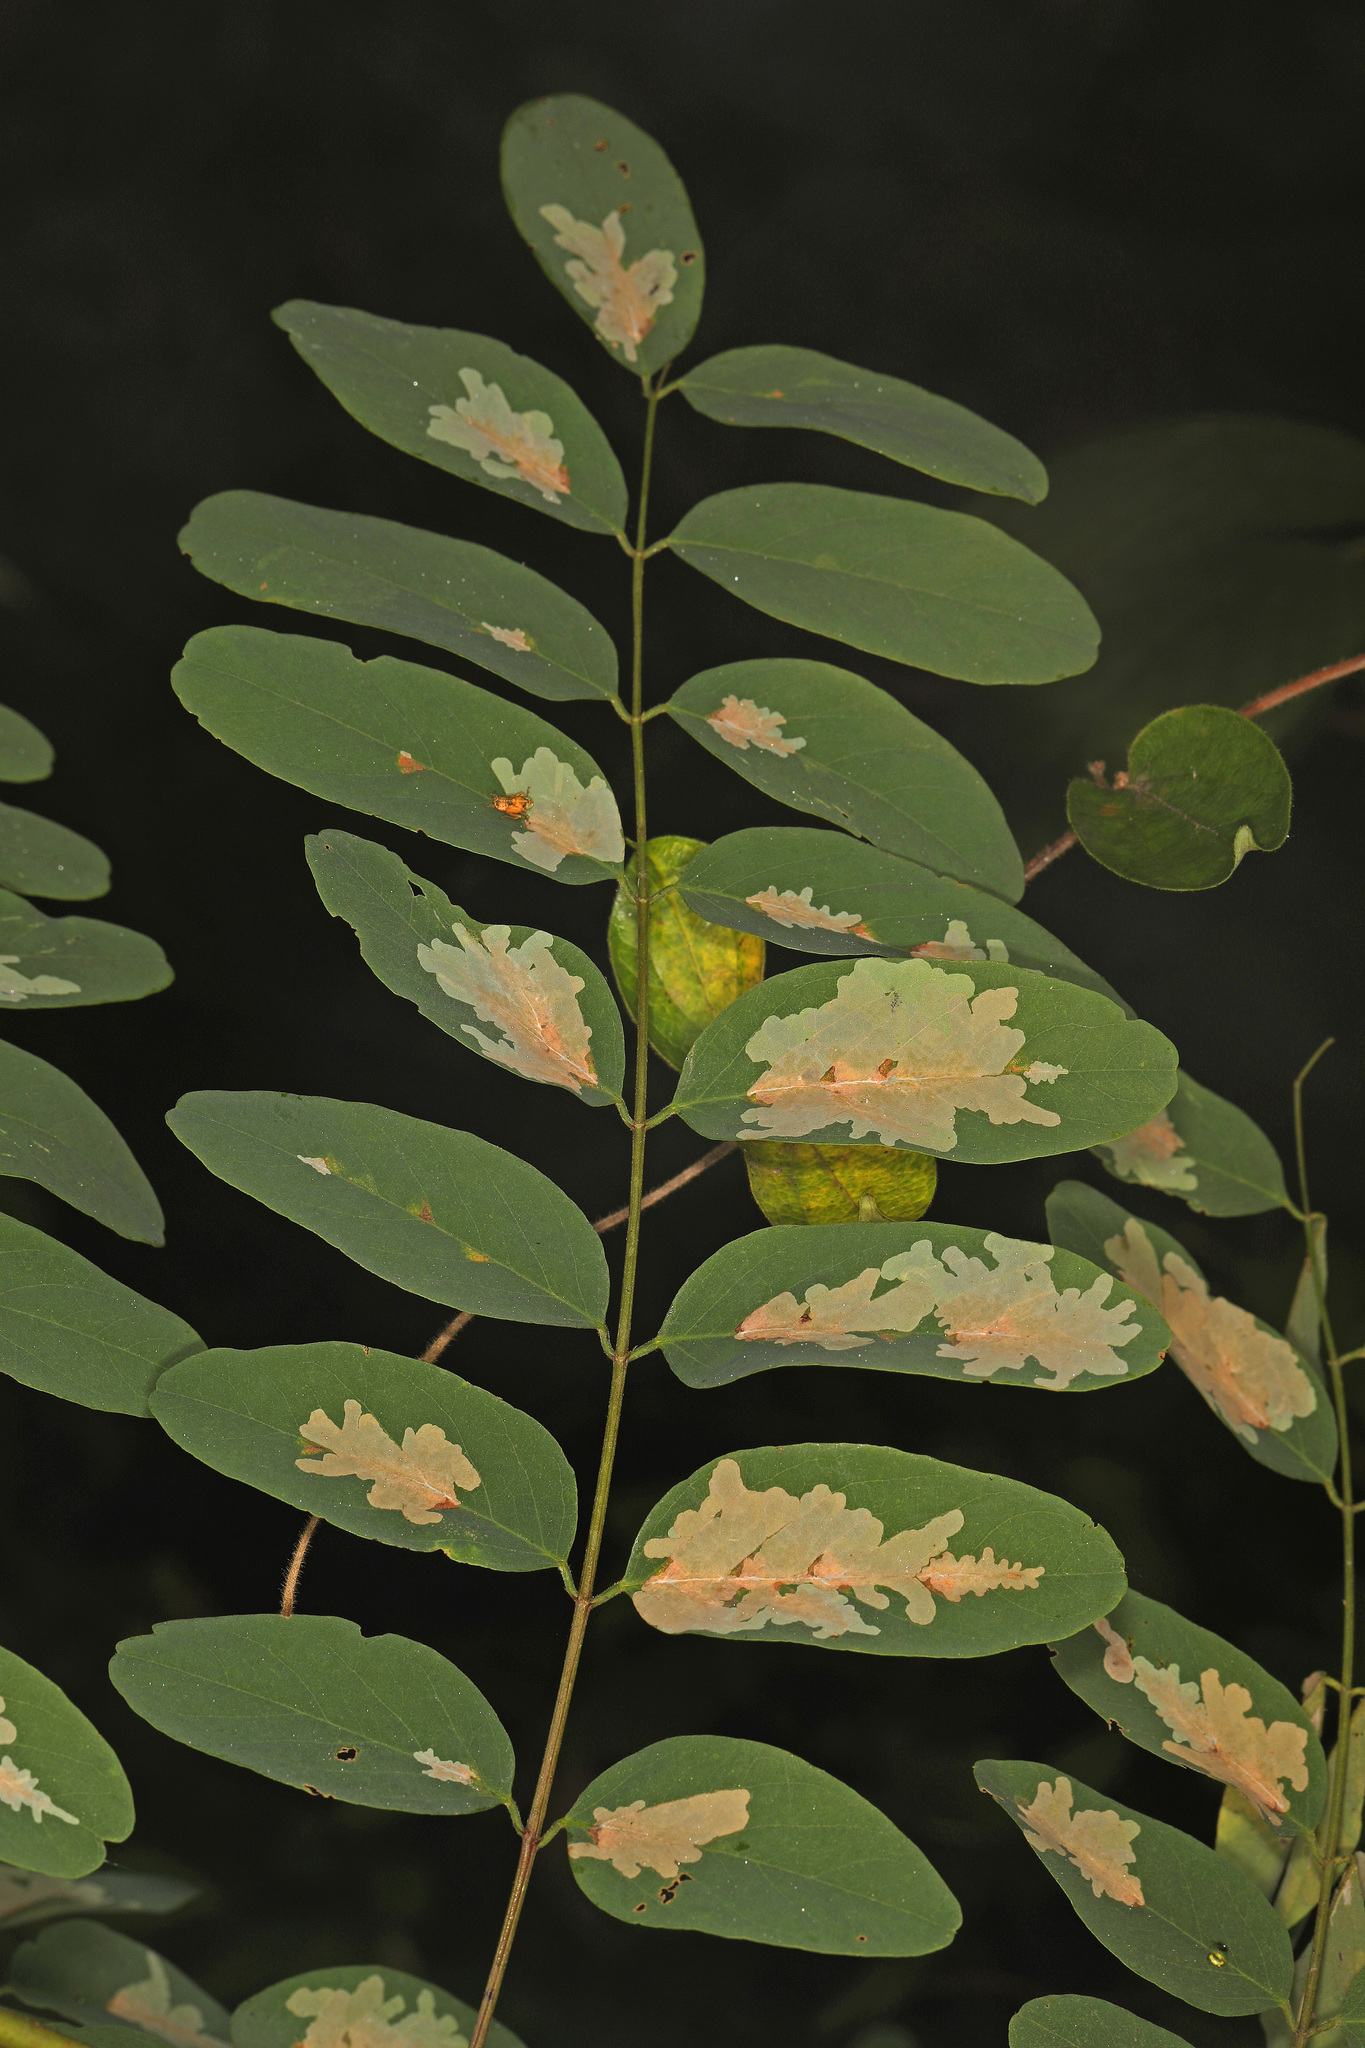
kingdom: Animalia
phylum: Arthropoda
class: Insecta
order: Lepidoptera
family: Gracillariidae
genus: Parectopa
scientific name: Parectopa robiniella
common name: Locust digitate leafminer
